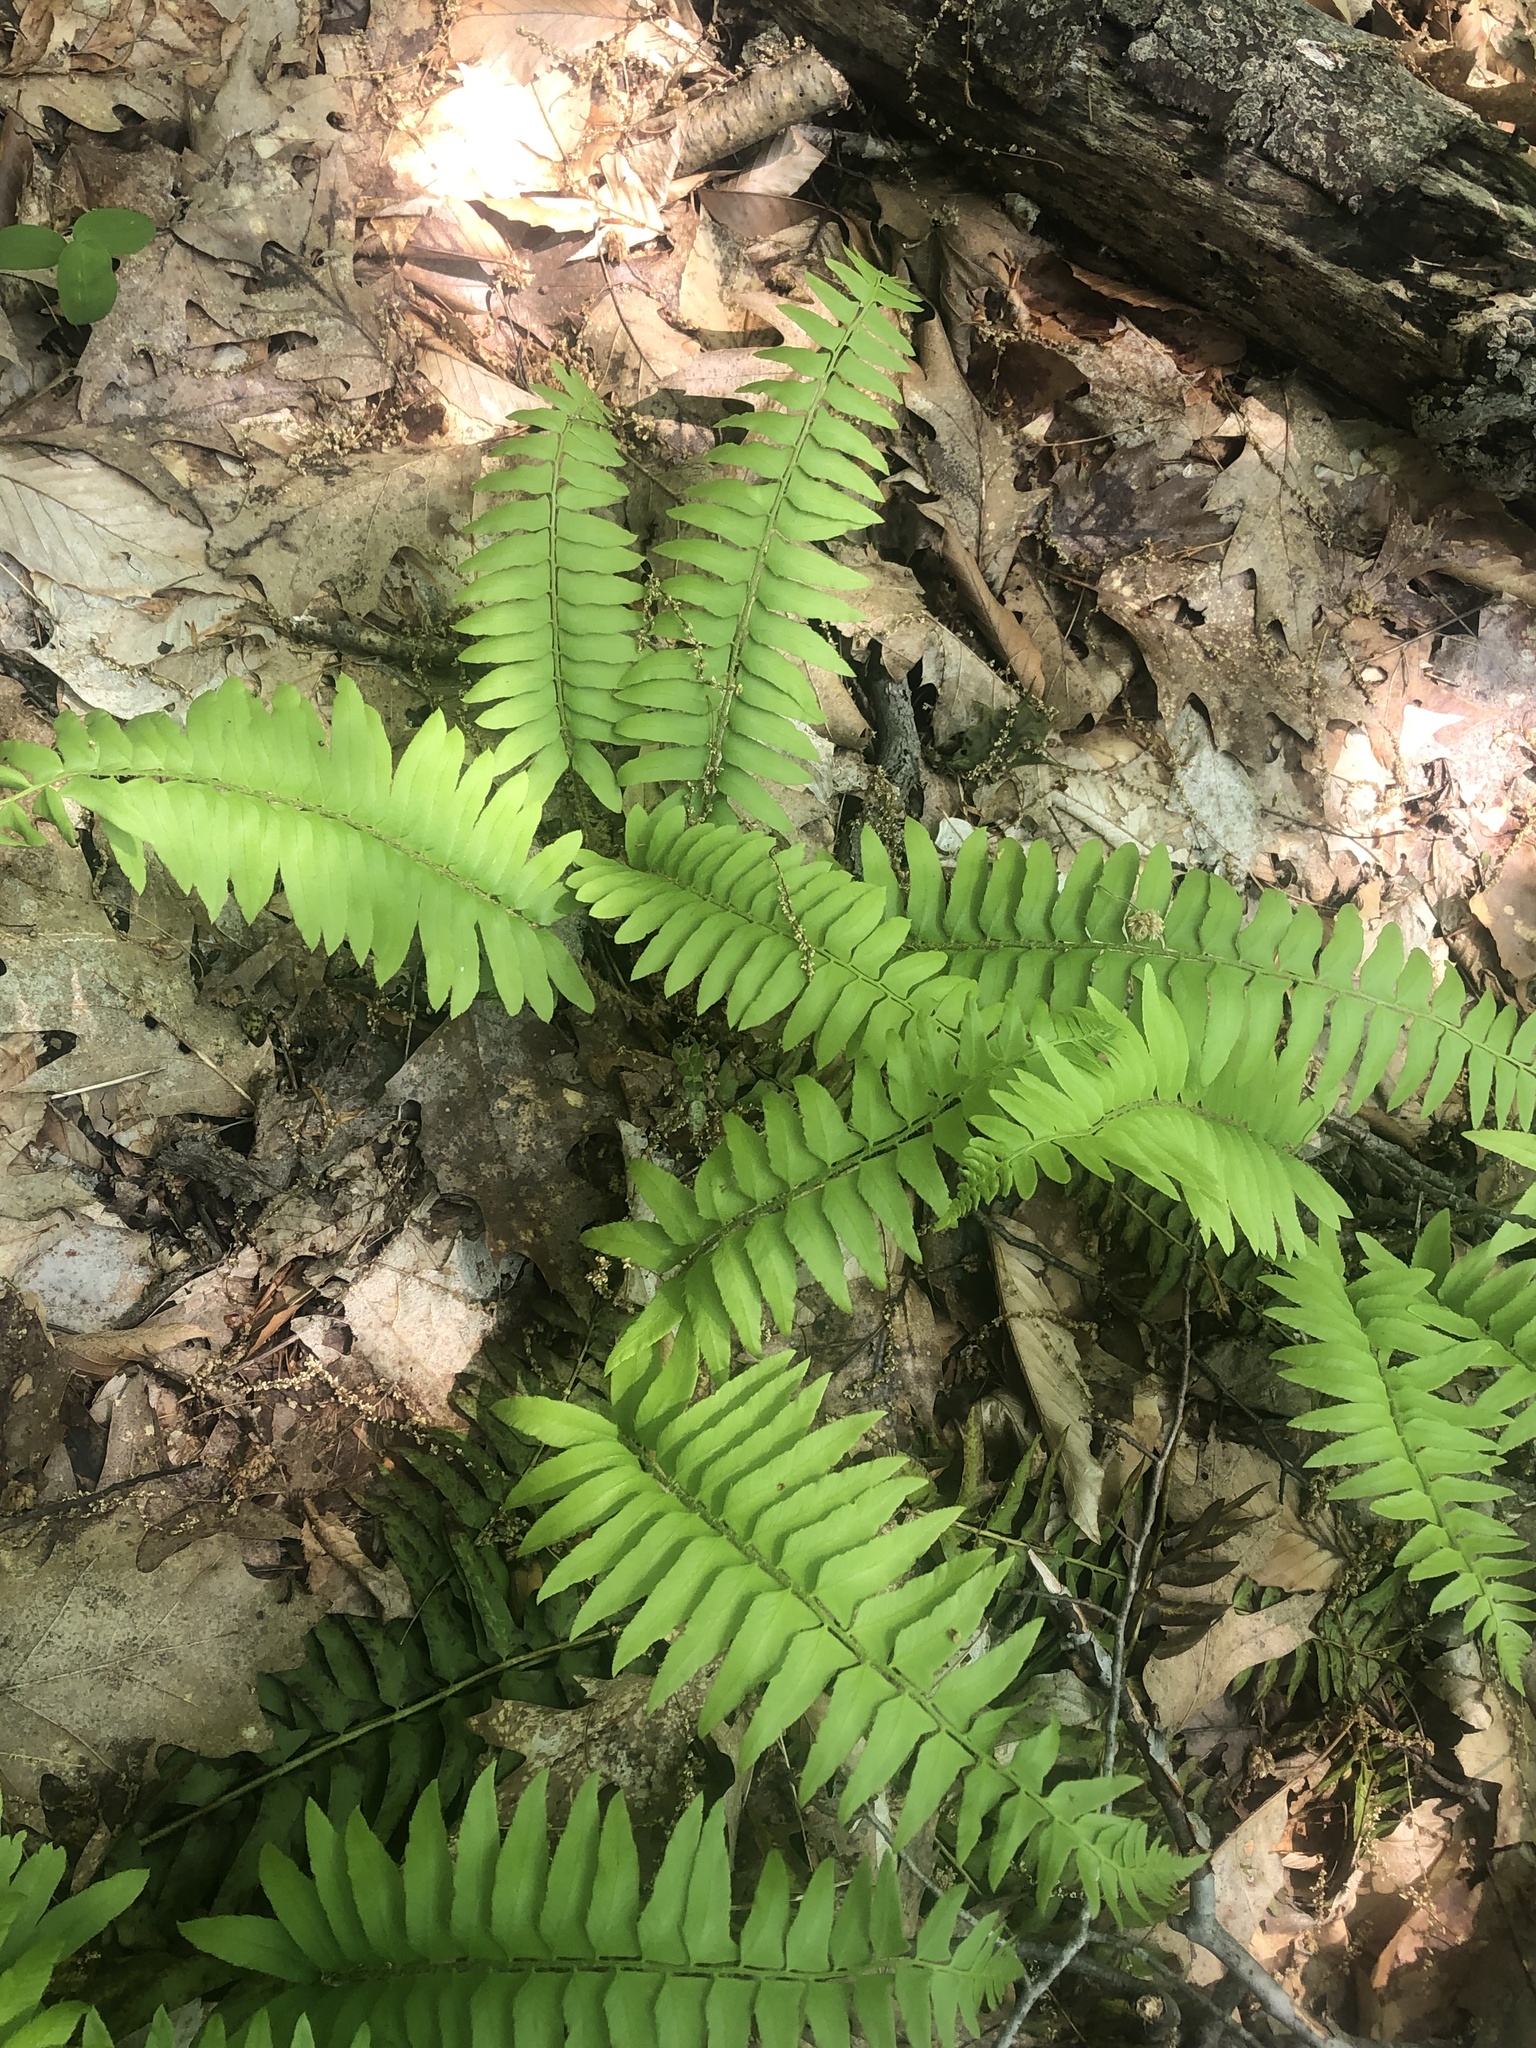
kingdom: Plantae
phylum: Tracheophyta
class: Polypodiopsida
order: Polypodiales
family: Dryopteridaceae
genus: Polystichum
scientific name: Polystichum acrostichoides
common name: Christmas fern
